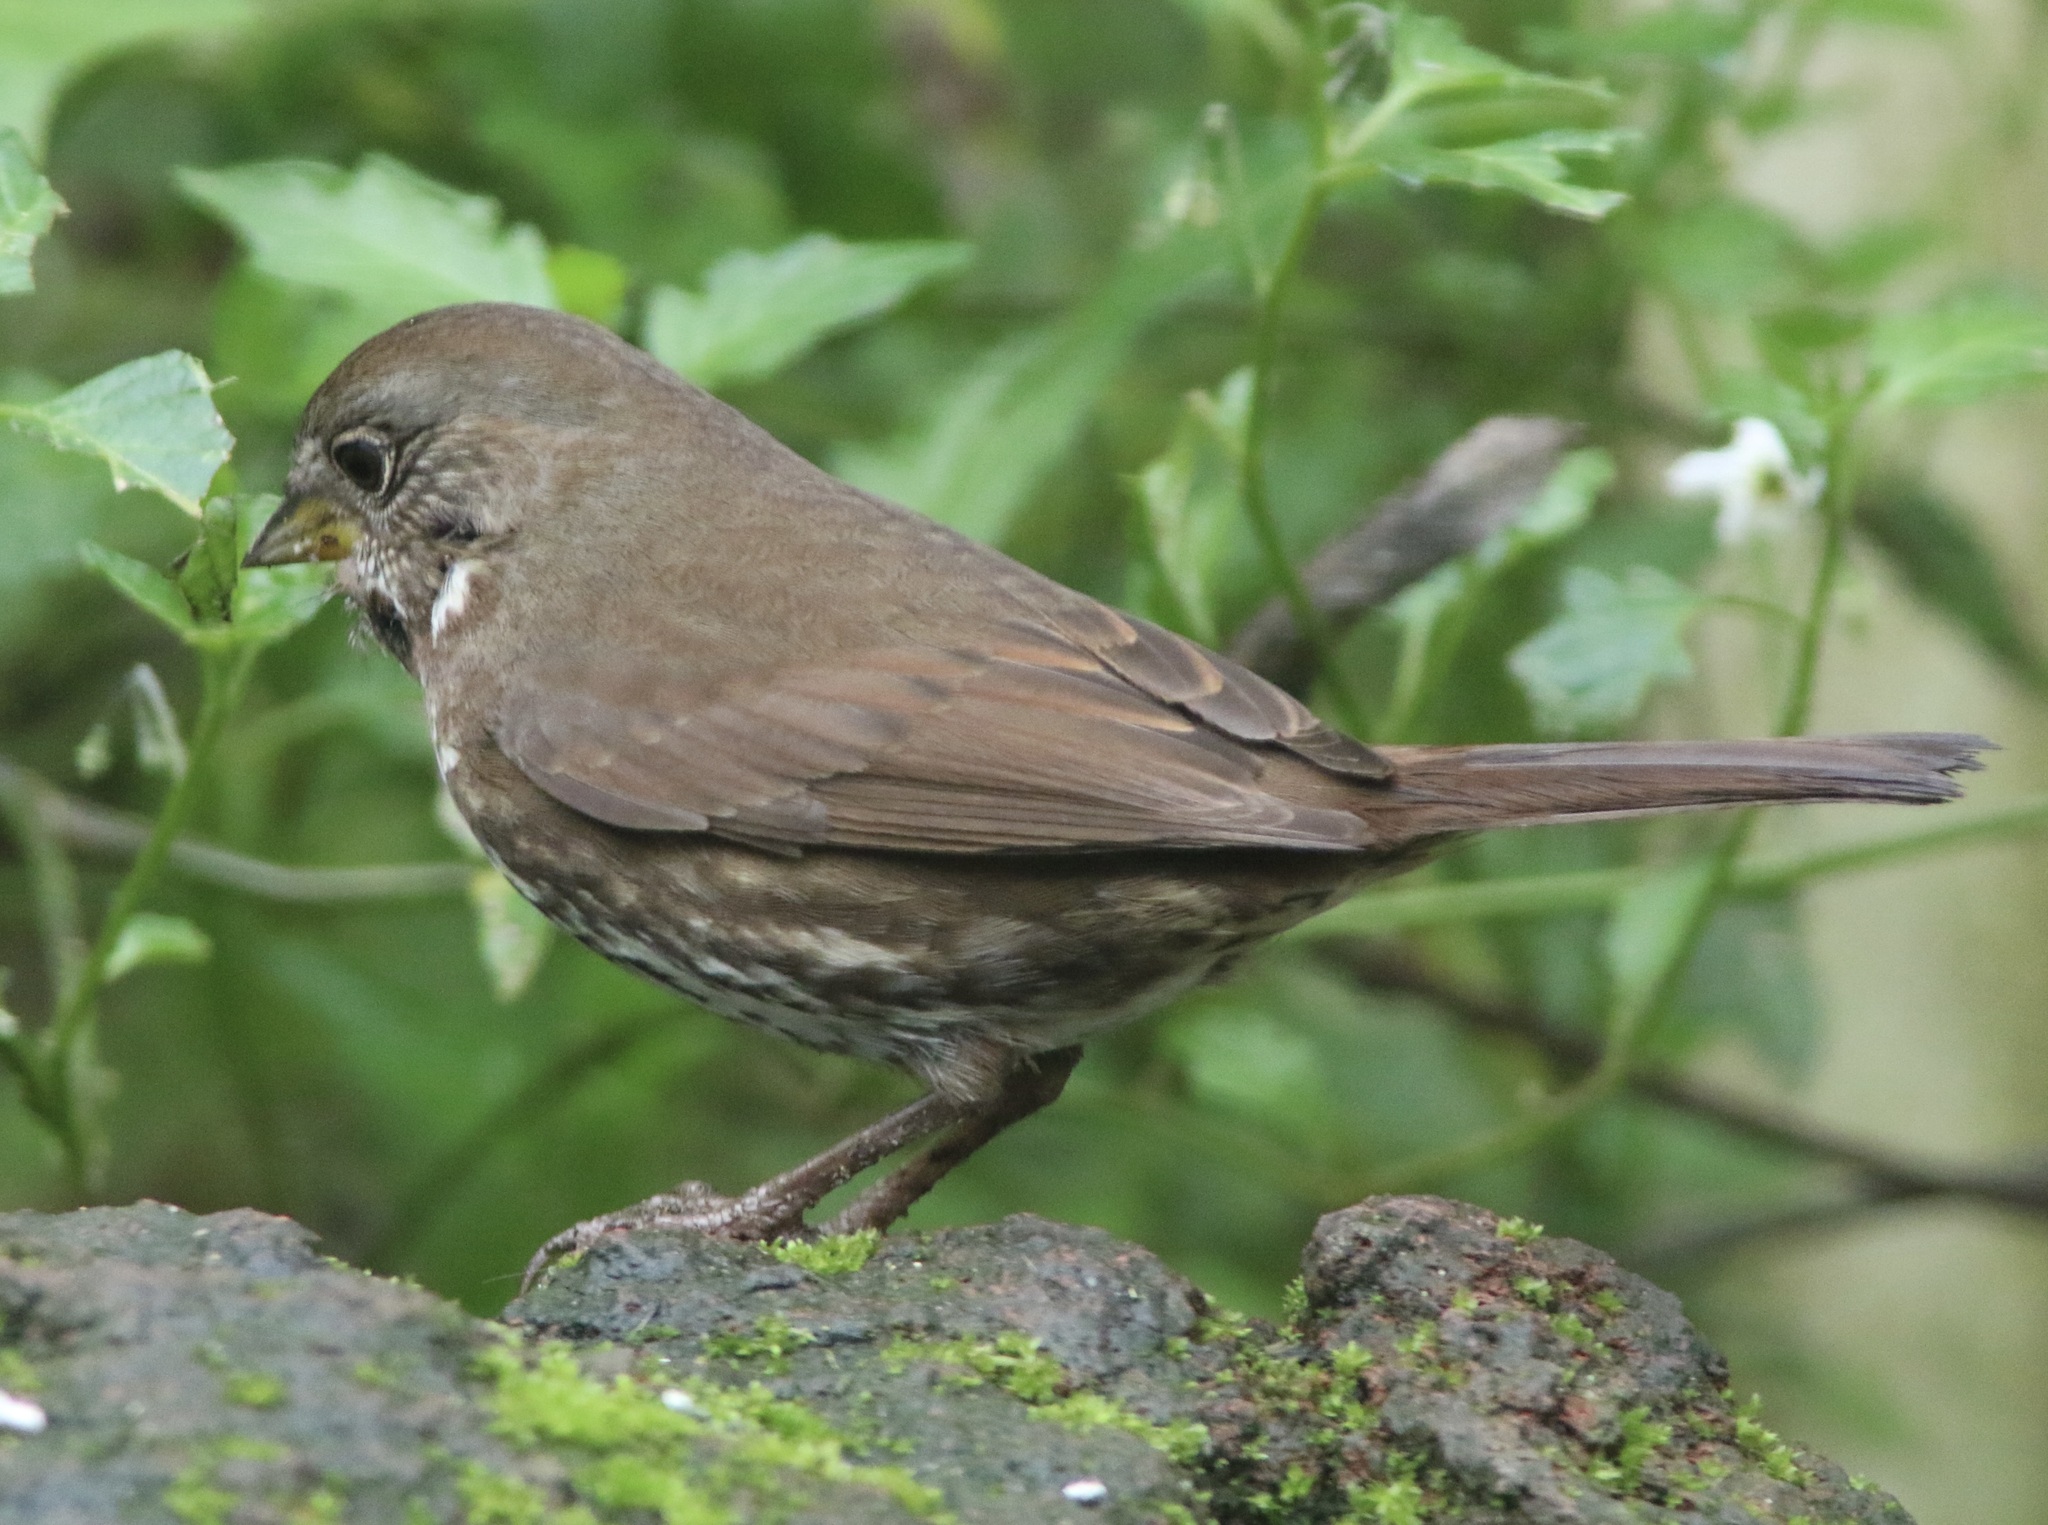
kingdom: Animalia
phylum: Chordata
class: Aves
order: Passeriformes
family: Passerellidae
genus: Passerella
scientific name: Passerella iliaca
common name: Fox sparrow
